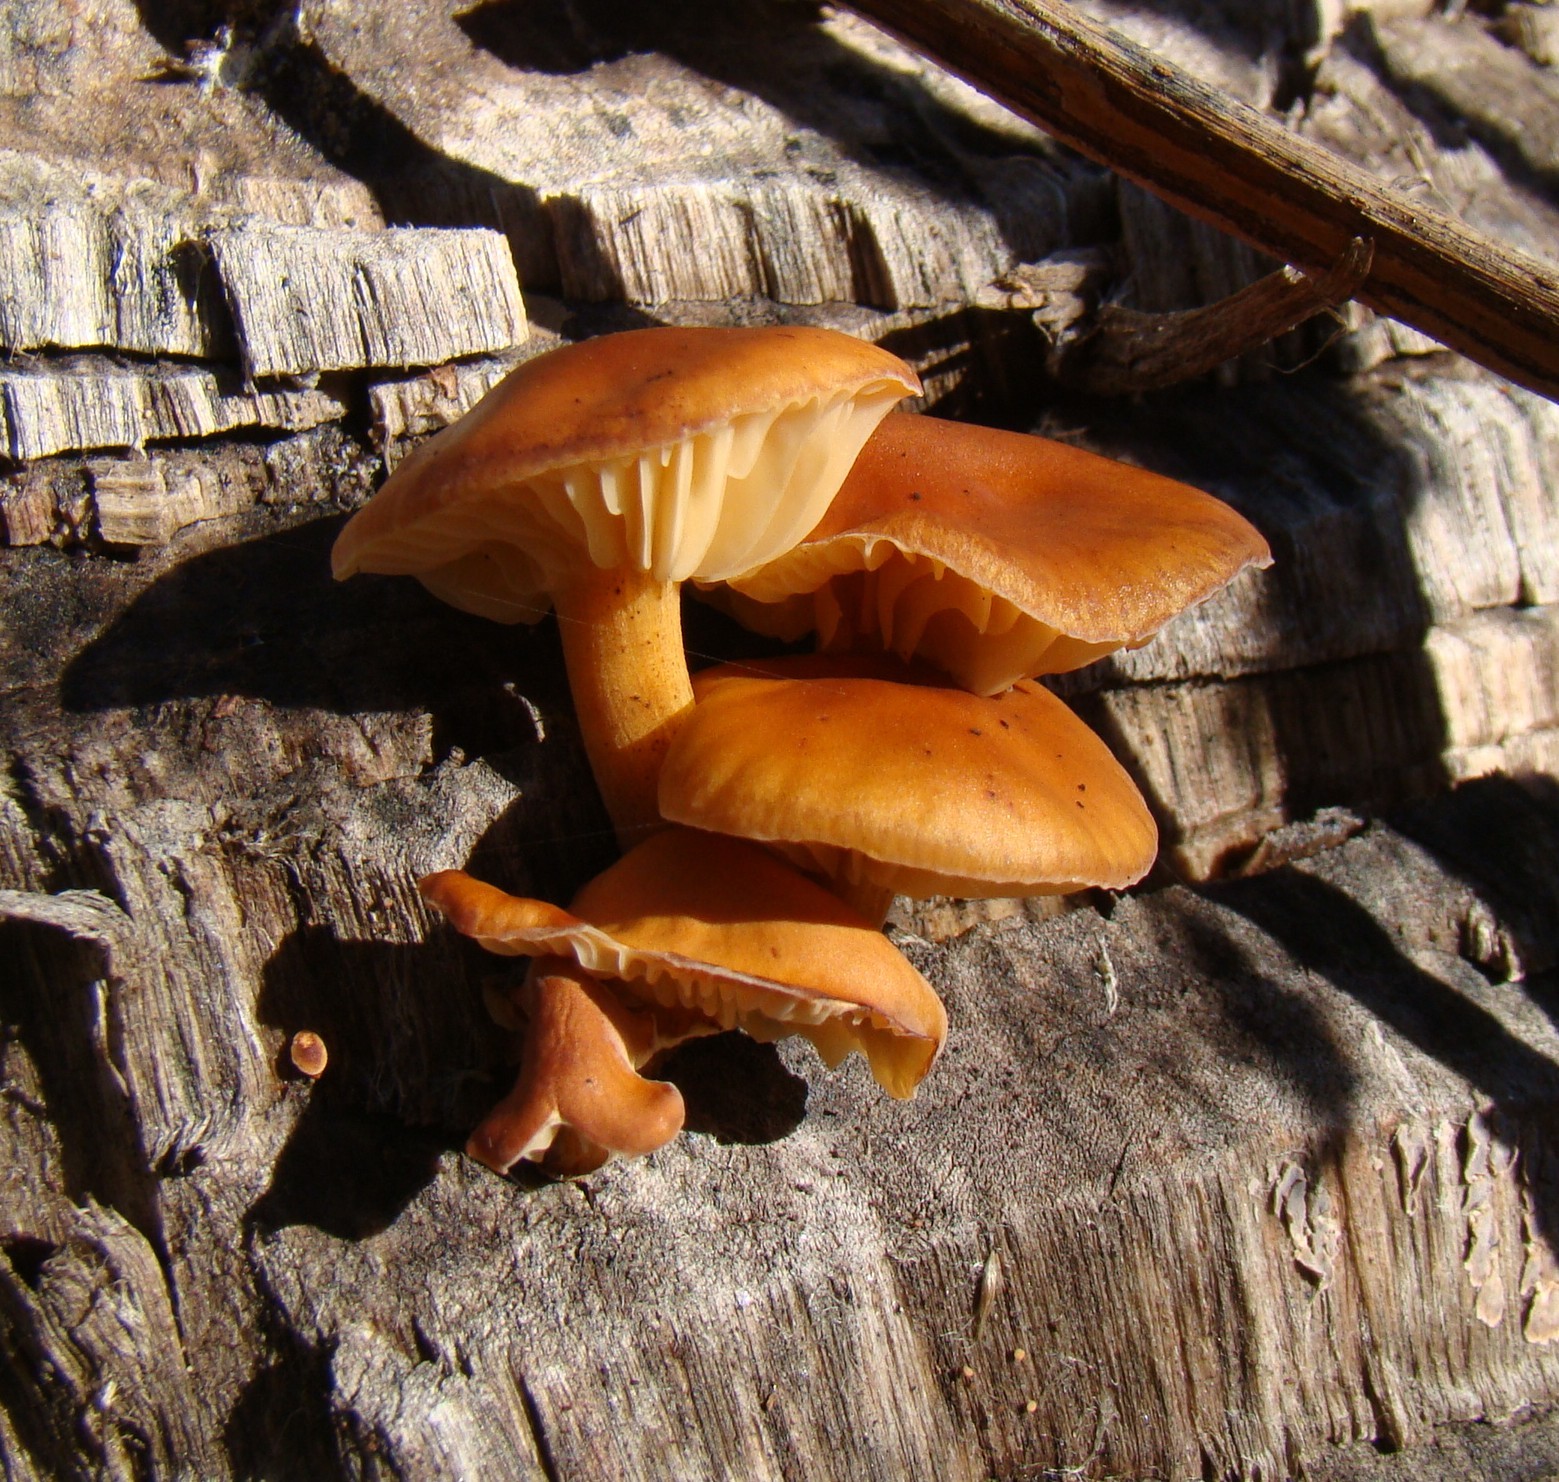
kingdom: Fungi
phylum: Basidiomycota
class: Agaricomycetes
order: Agaricales
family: Physalacriaceae
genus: Flammulina
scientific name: Flammulina
